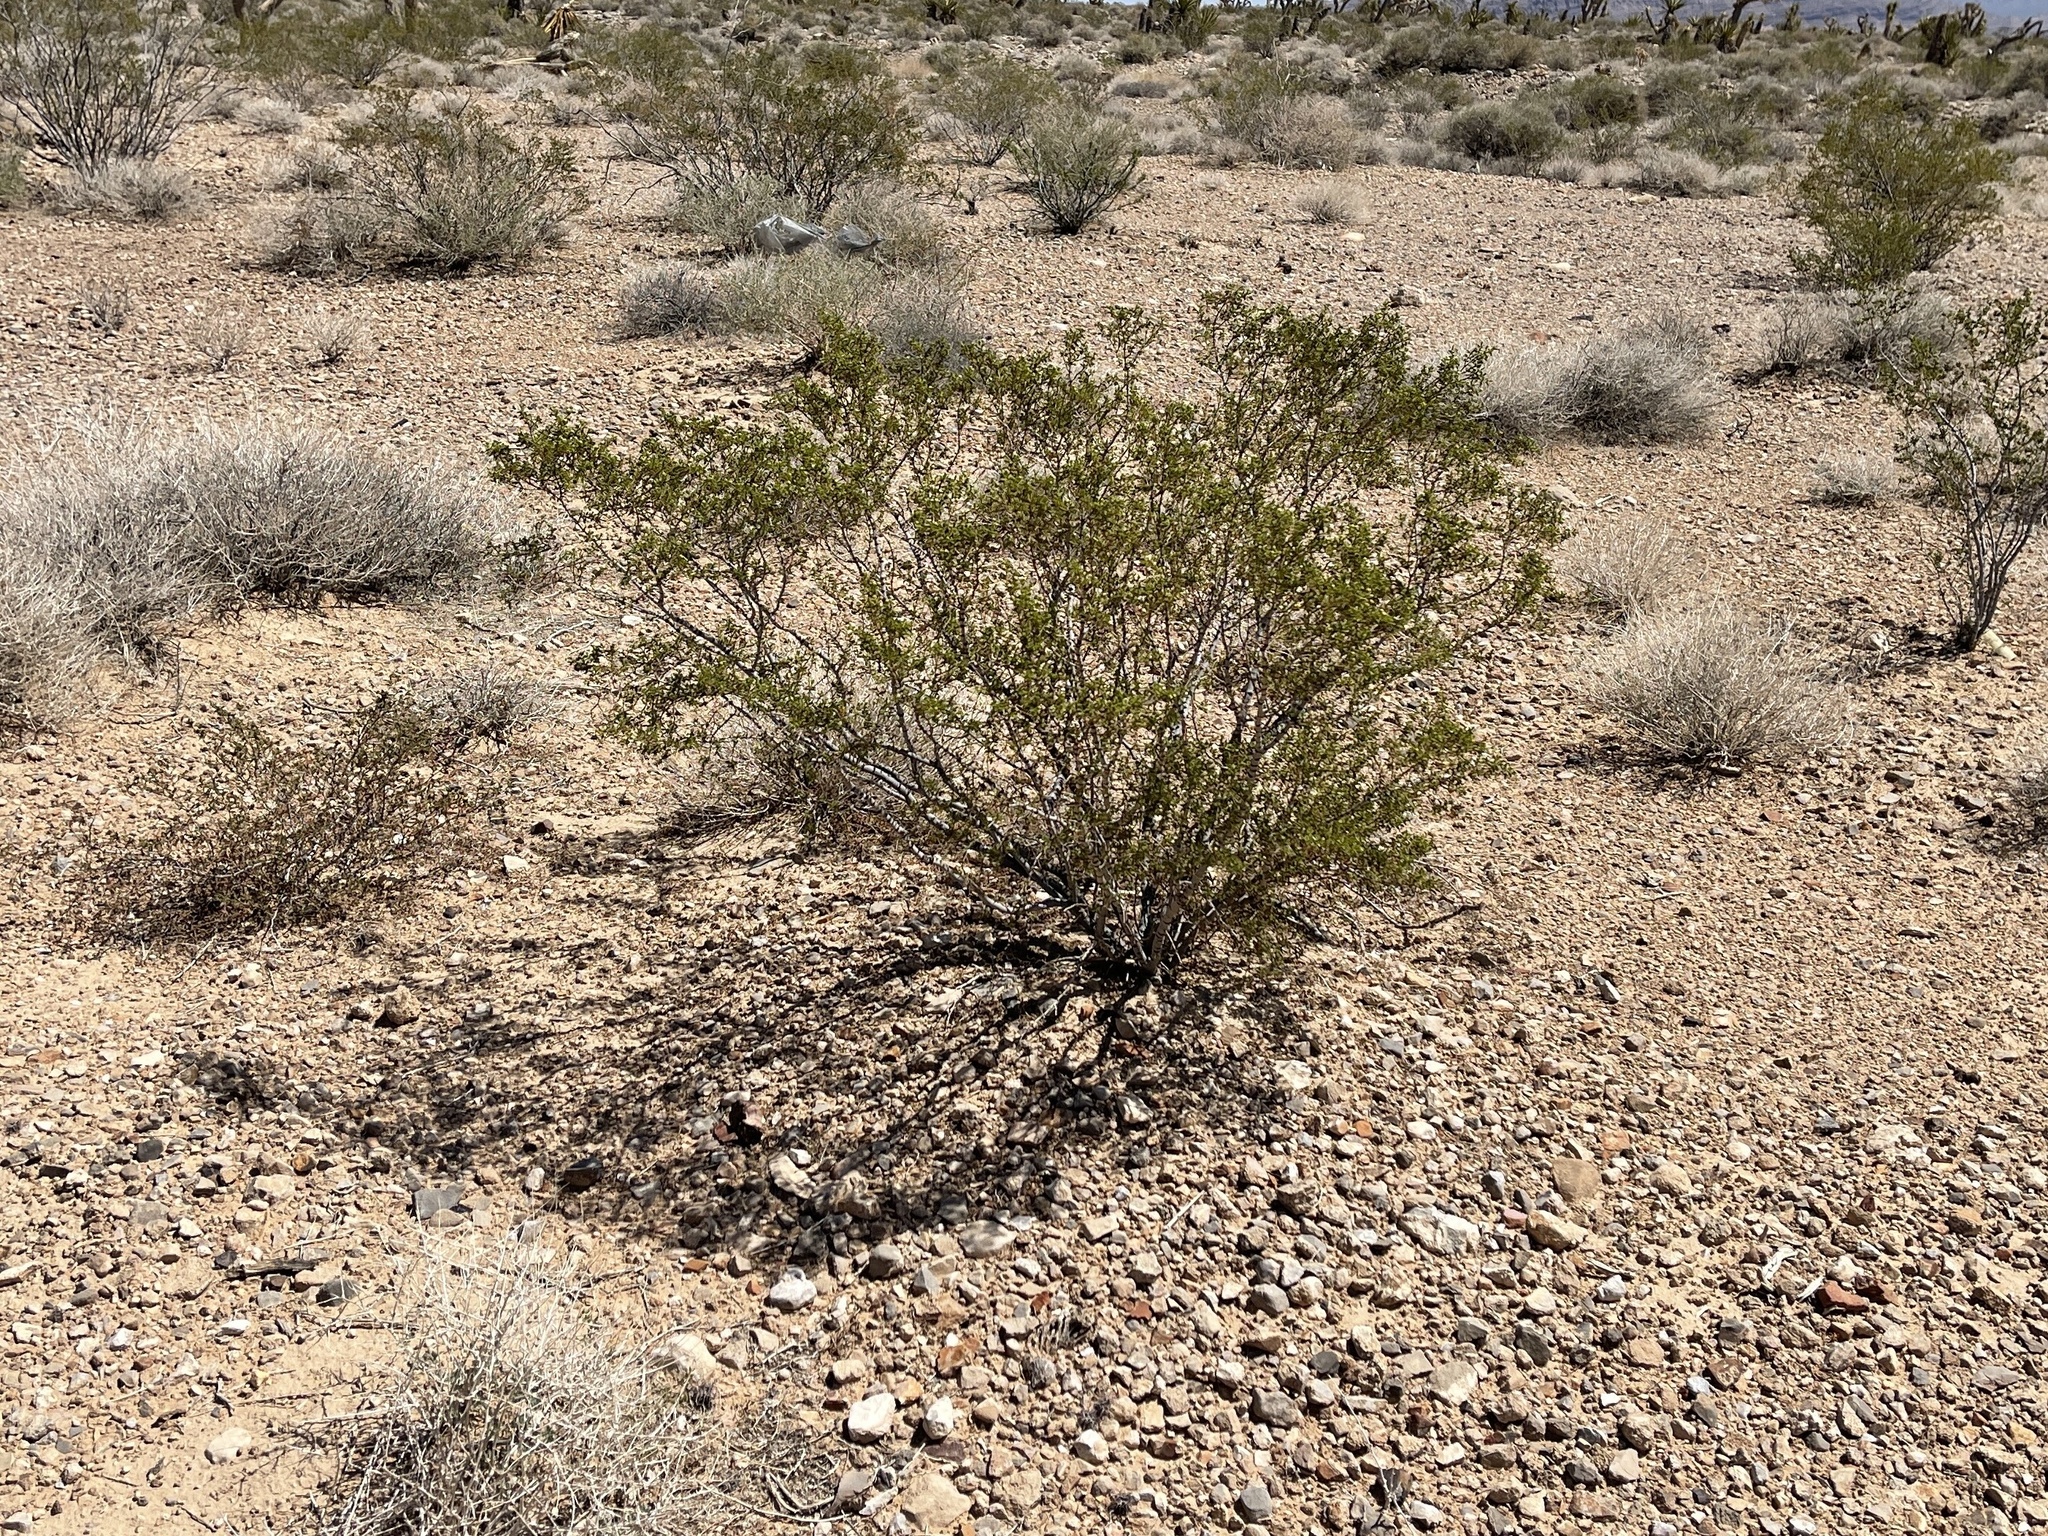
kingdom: Plantae
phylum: Tracheophyta
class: Magnoliopsida
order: Zygophyllales
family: Zygophyllaceae
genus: Larrea
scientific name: Larrea tridentata
